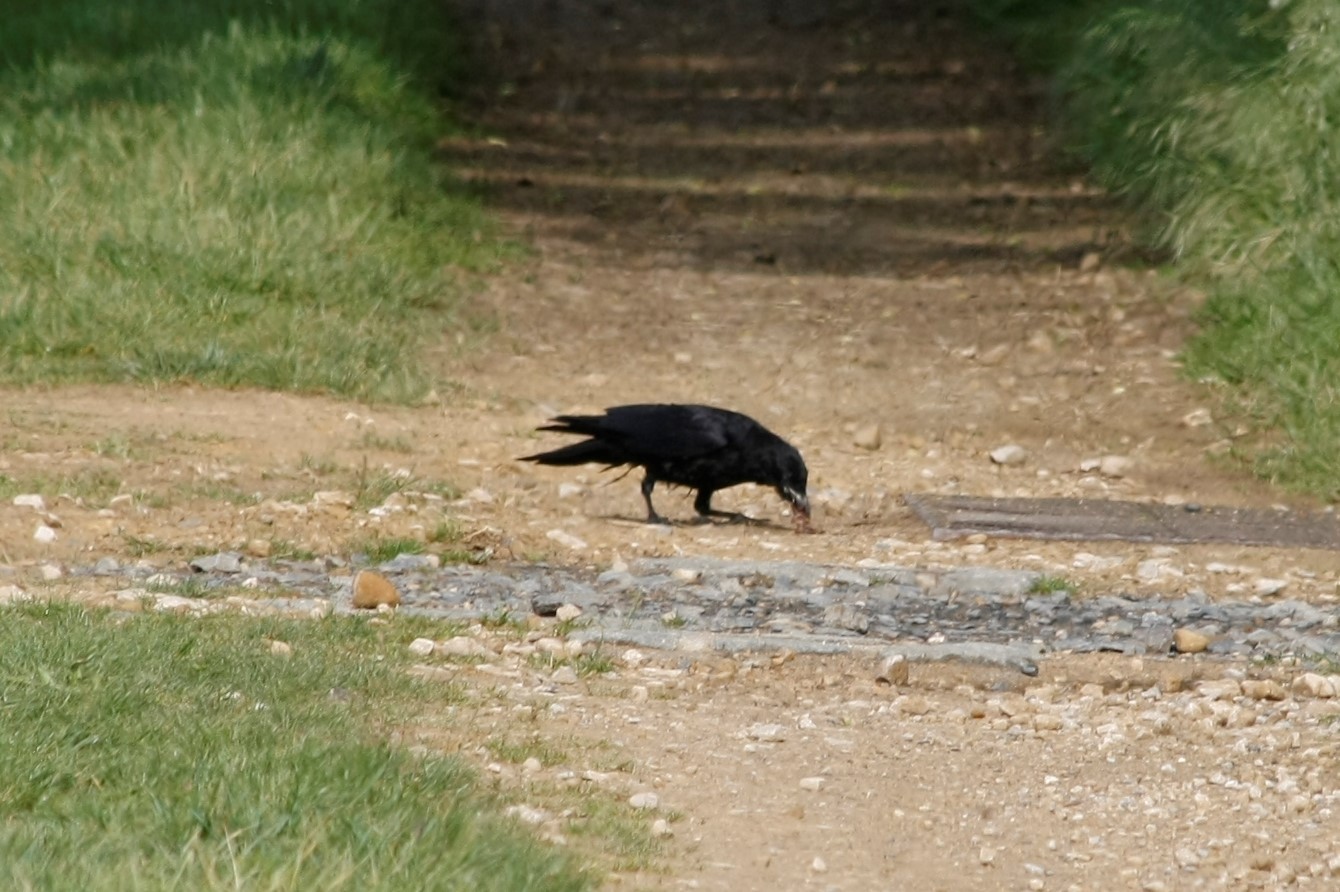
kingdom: Animalia
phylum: Chordata
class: Aves
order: Passeriformes
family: Corvidae
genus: Corvus
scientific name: Corvus frugilegus
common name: Rook
